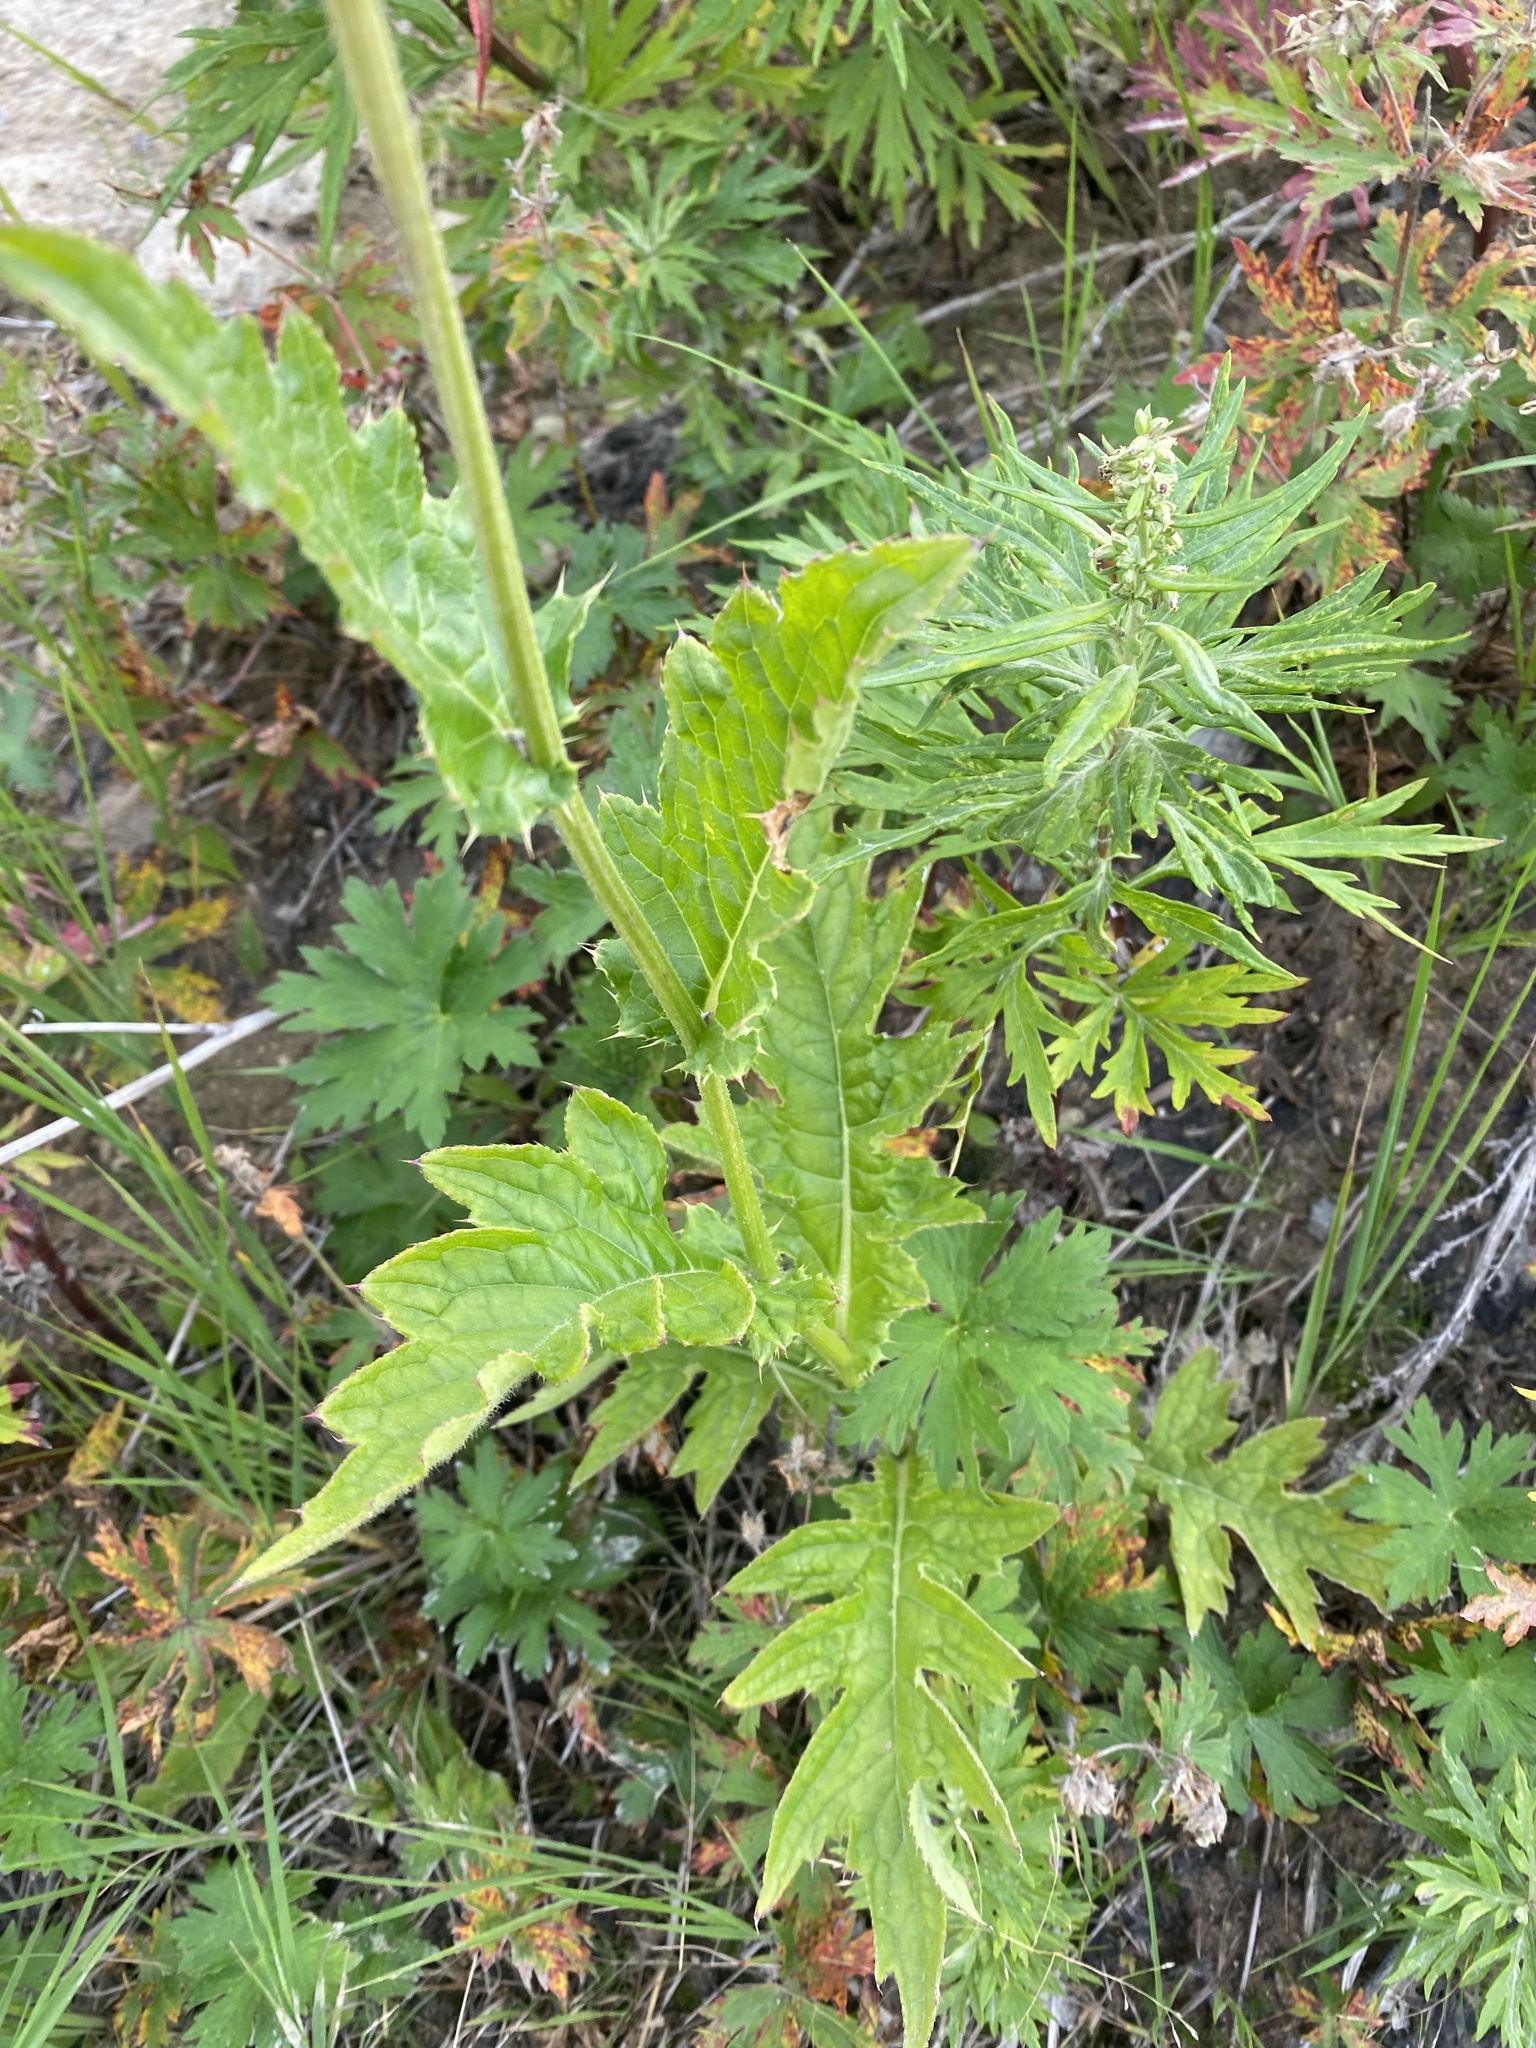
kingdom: Plantae
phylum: Tracheophyta
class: Magnoliopsida
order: Asterales
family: Asteraceae
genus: Cirsium
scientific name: Cirsium kamtschaticum
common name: Kamchatka thistle
